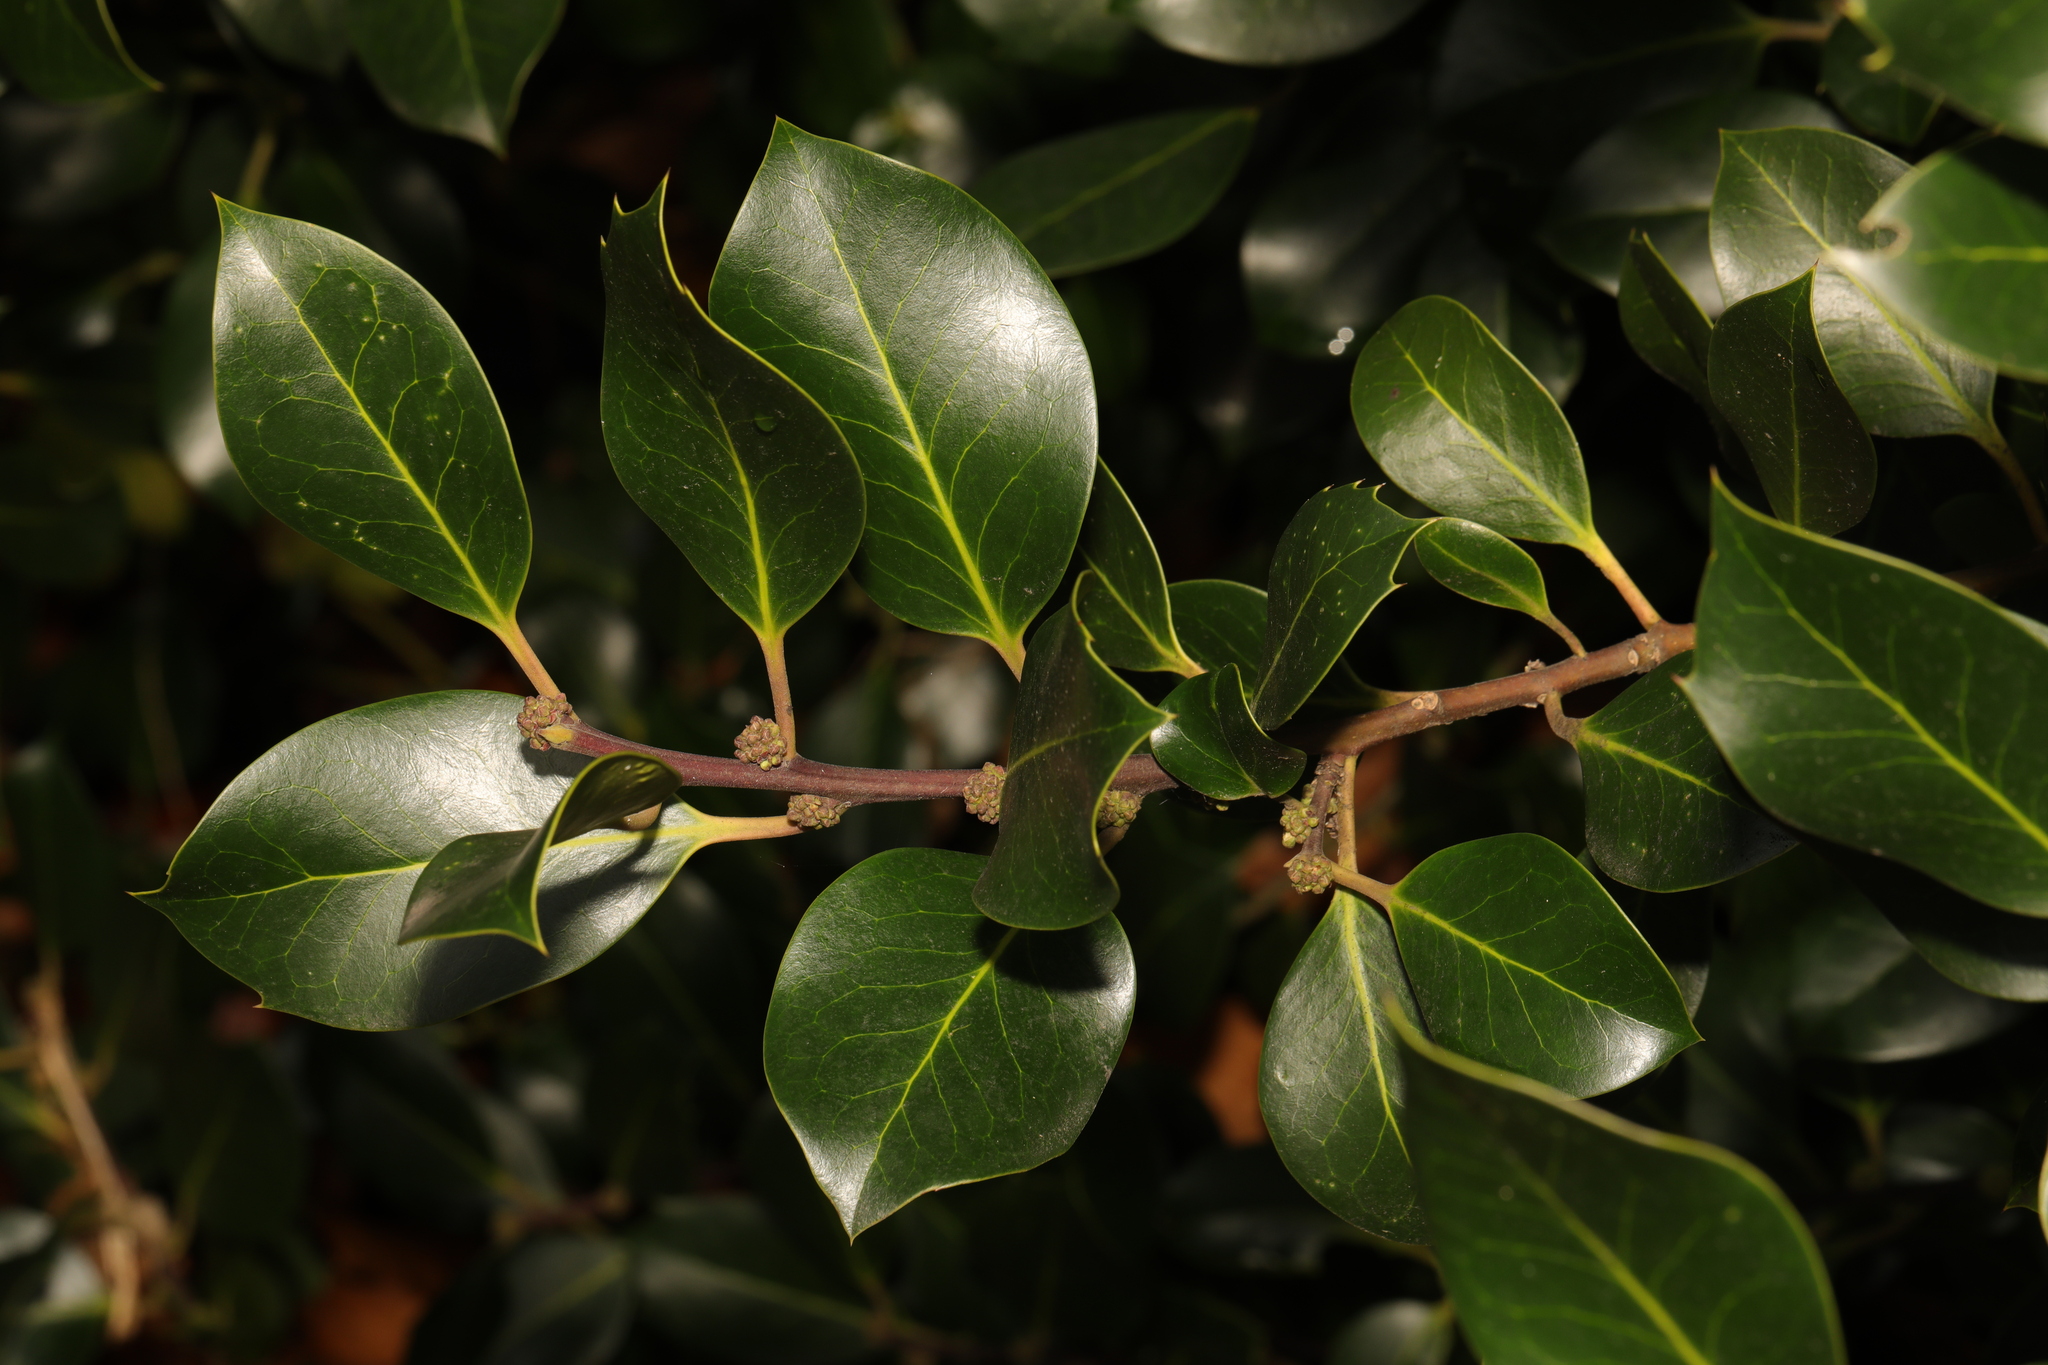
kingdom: Plantae
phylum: Tracheophyta
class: Magnoliopsida
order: Aquifoliales
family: Aquifoliaceae
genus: Ilex
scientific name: Ilex aquifolium
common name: English holly
